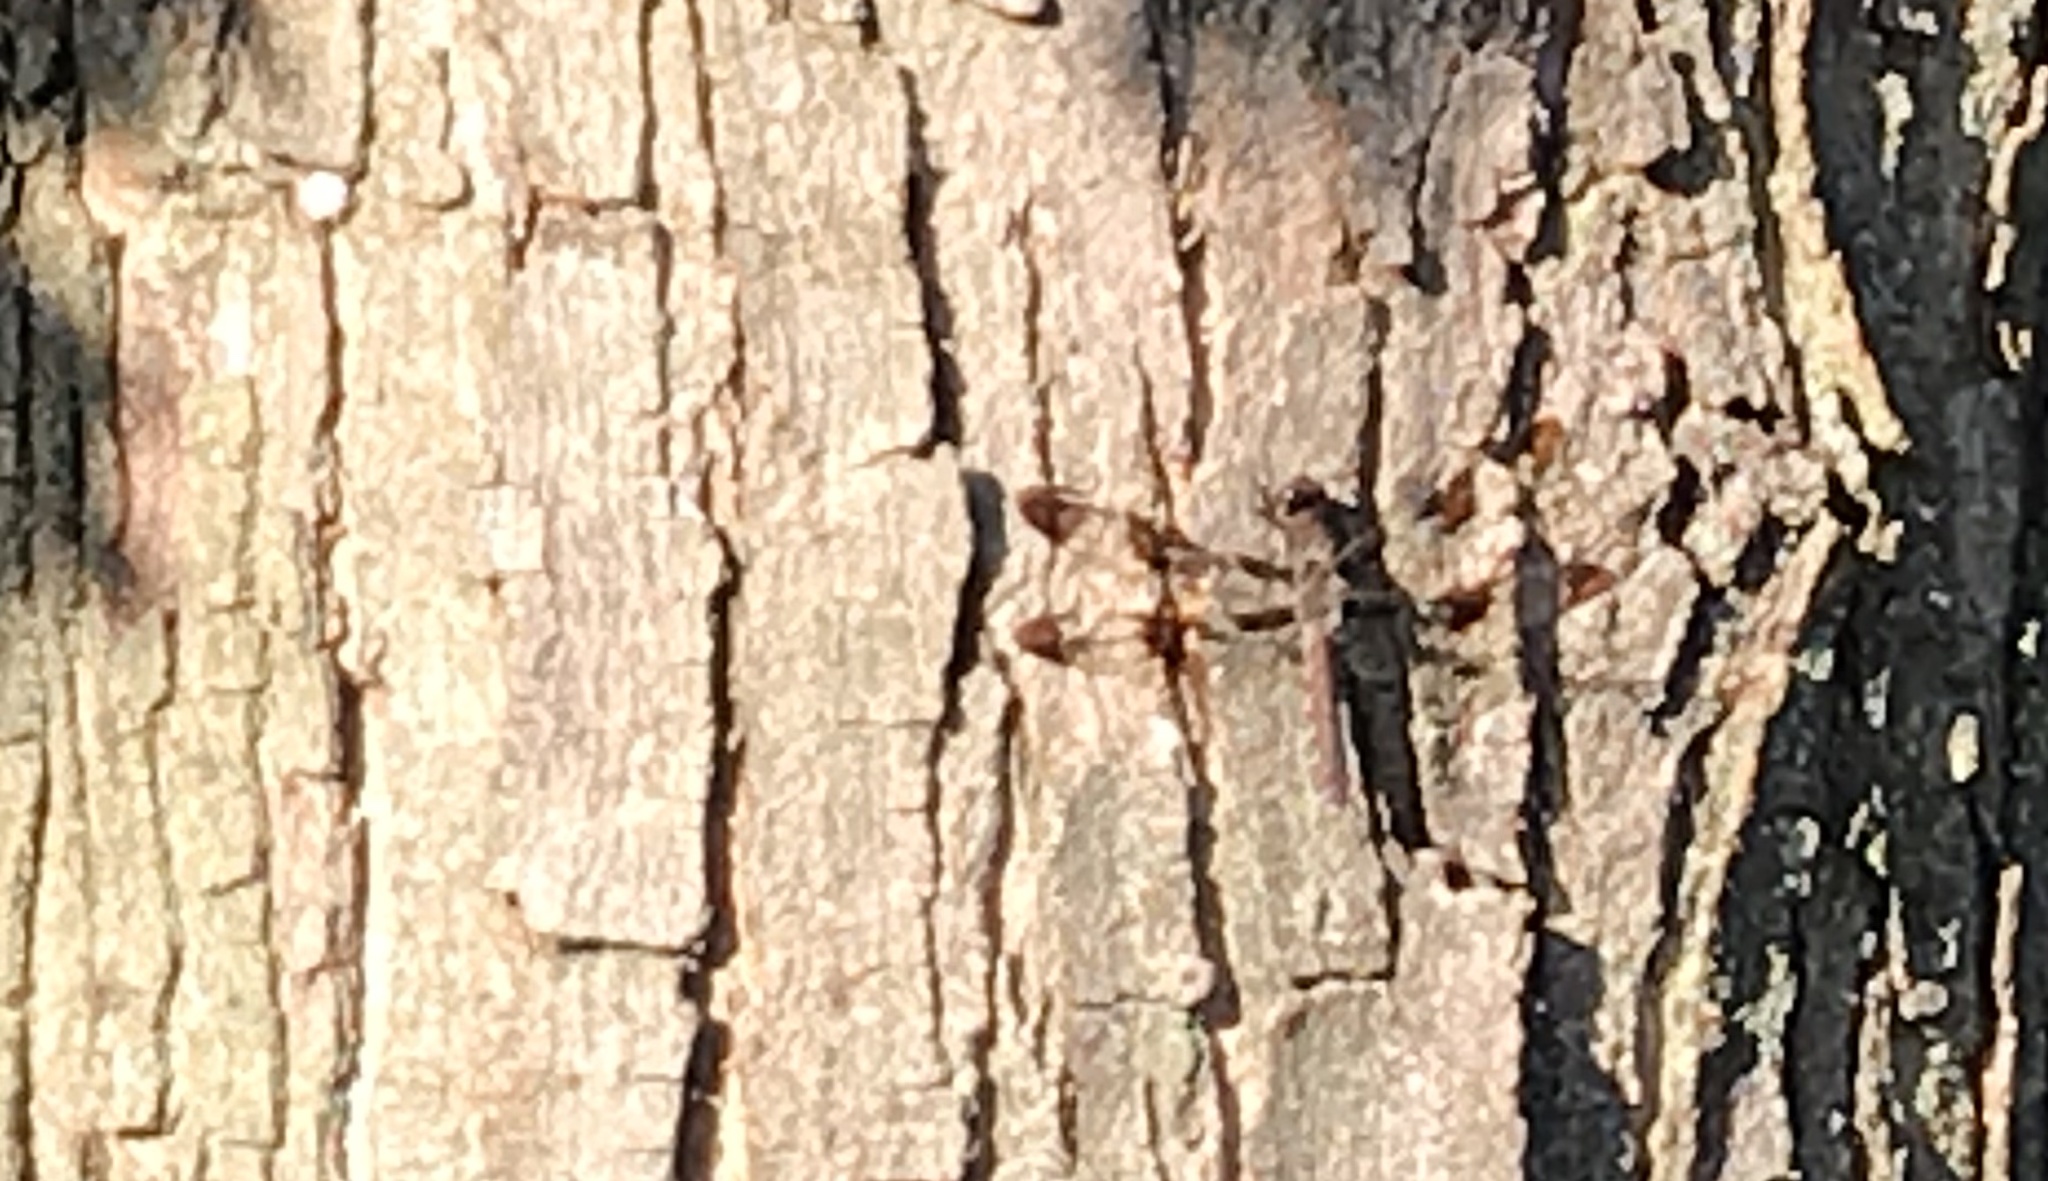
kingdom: Animalia
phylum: Arthropoda
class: Insecta
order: Odonata
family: Libellulidae
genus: Plathemis
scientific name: Plathemis lydia
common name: Common whitetail
